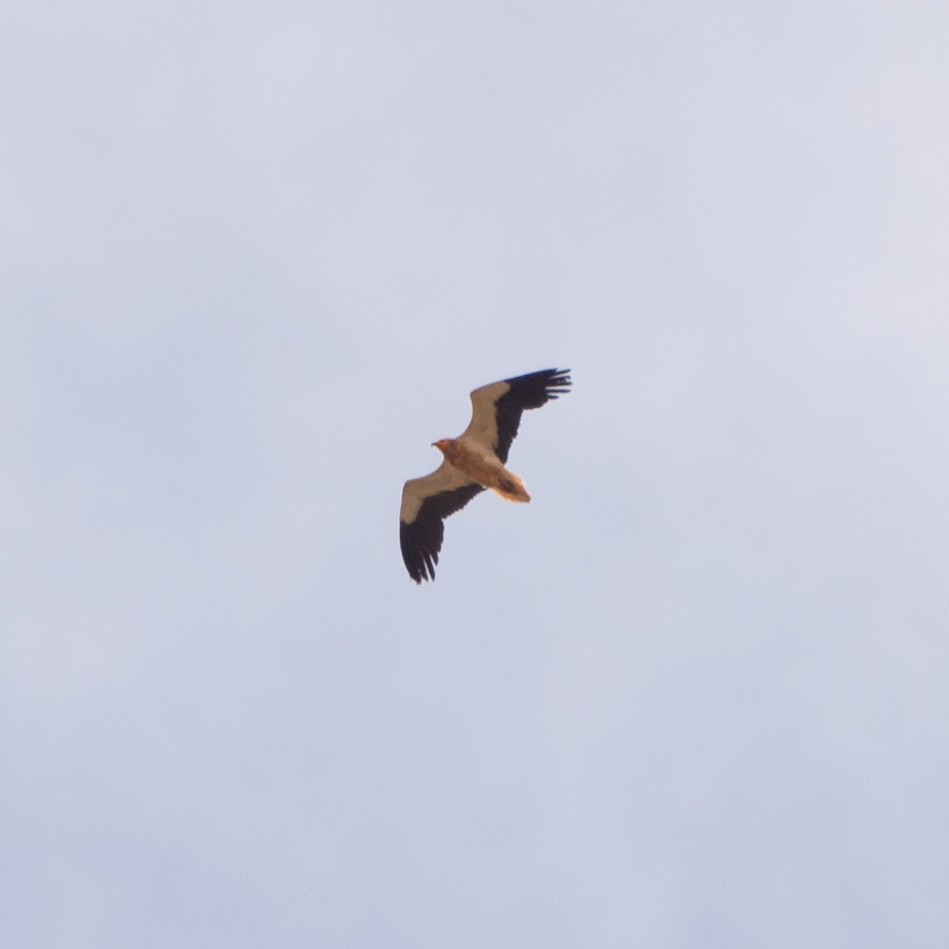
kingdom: Animalia
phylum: Chordata
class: Aves
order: Accipitriformes
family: Accipitridae
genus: Neophron
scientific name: Neophron percnopterus
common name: Egyptian vulture
